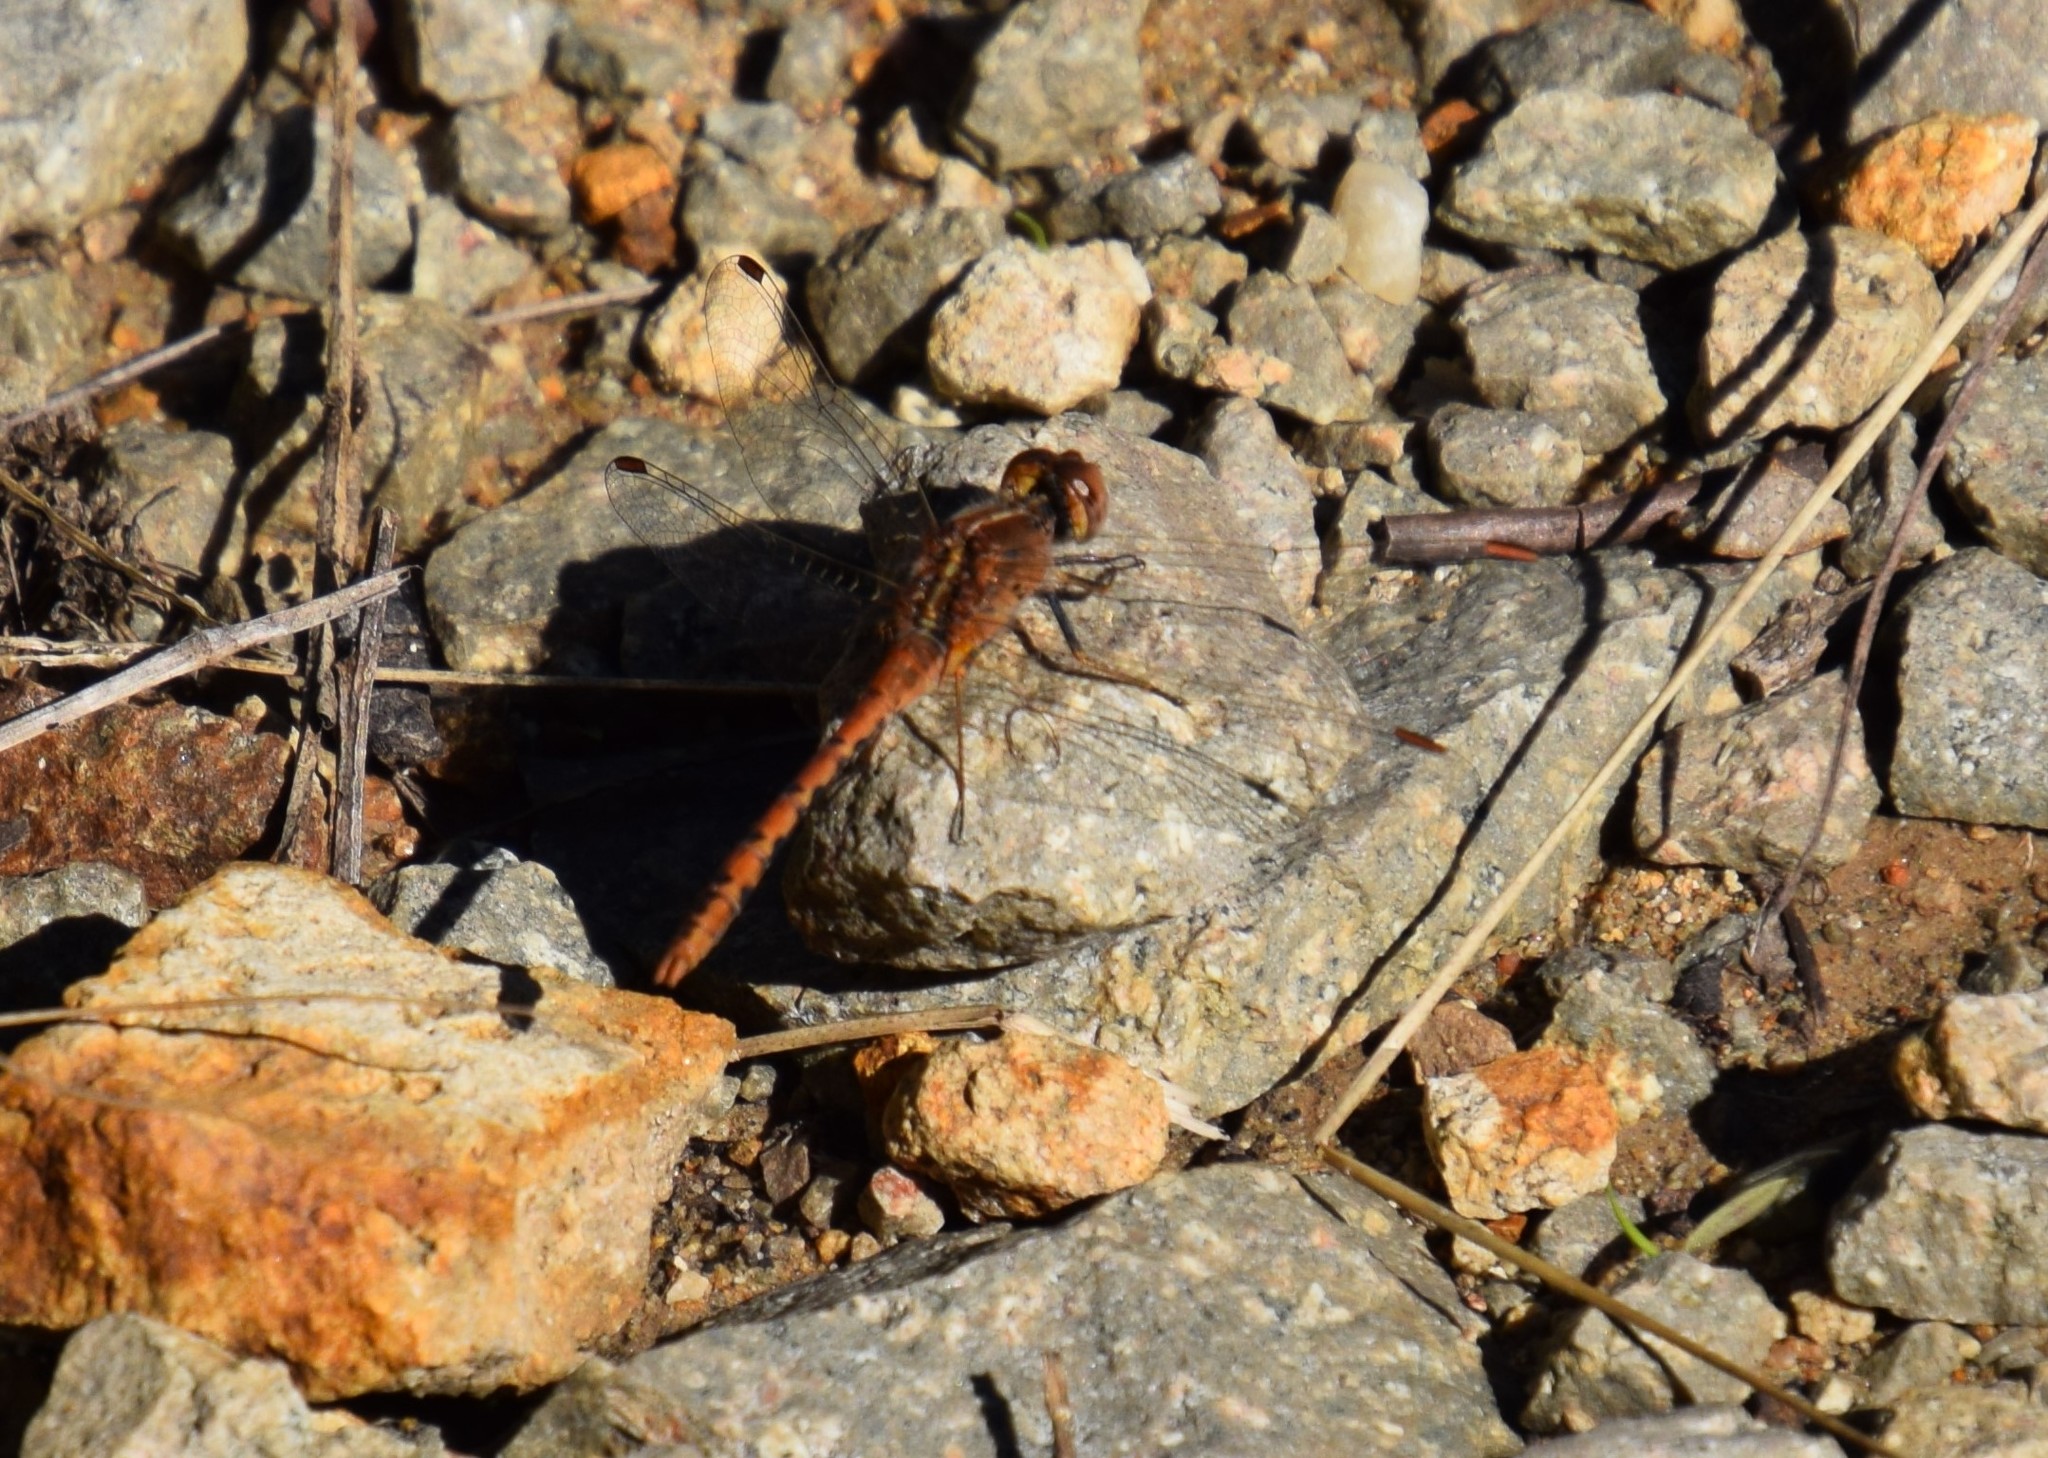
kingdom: Animalia
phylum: Arthropoda
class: Insecta
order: Odonata
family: Libellulidae
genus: Diplacodes
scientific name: Diplacodes bipunctata
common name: Red percher dragonfly
